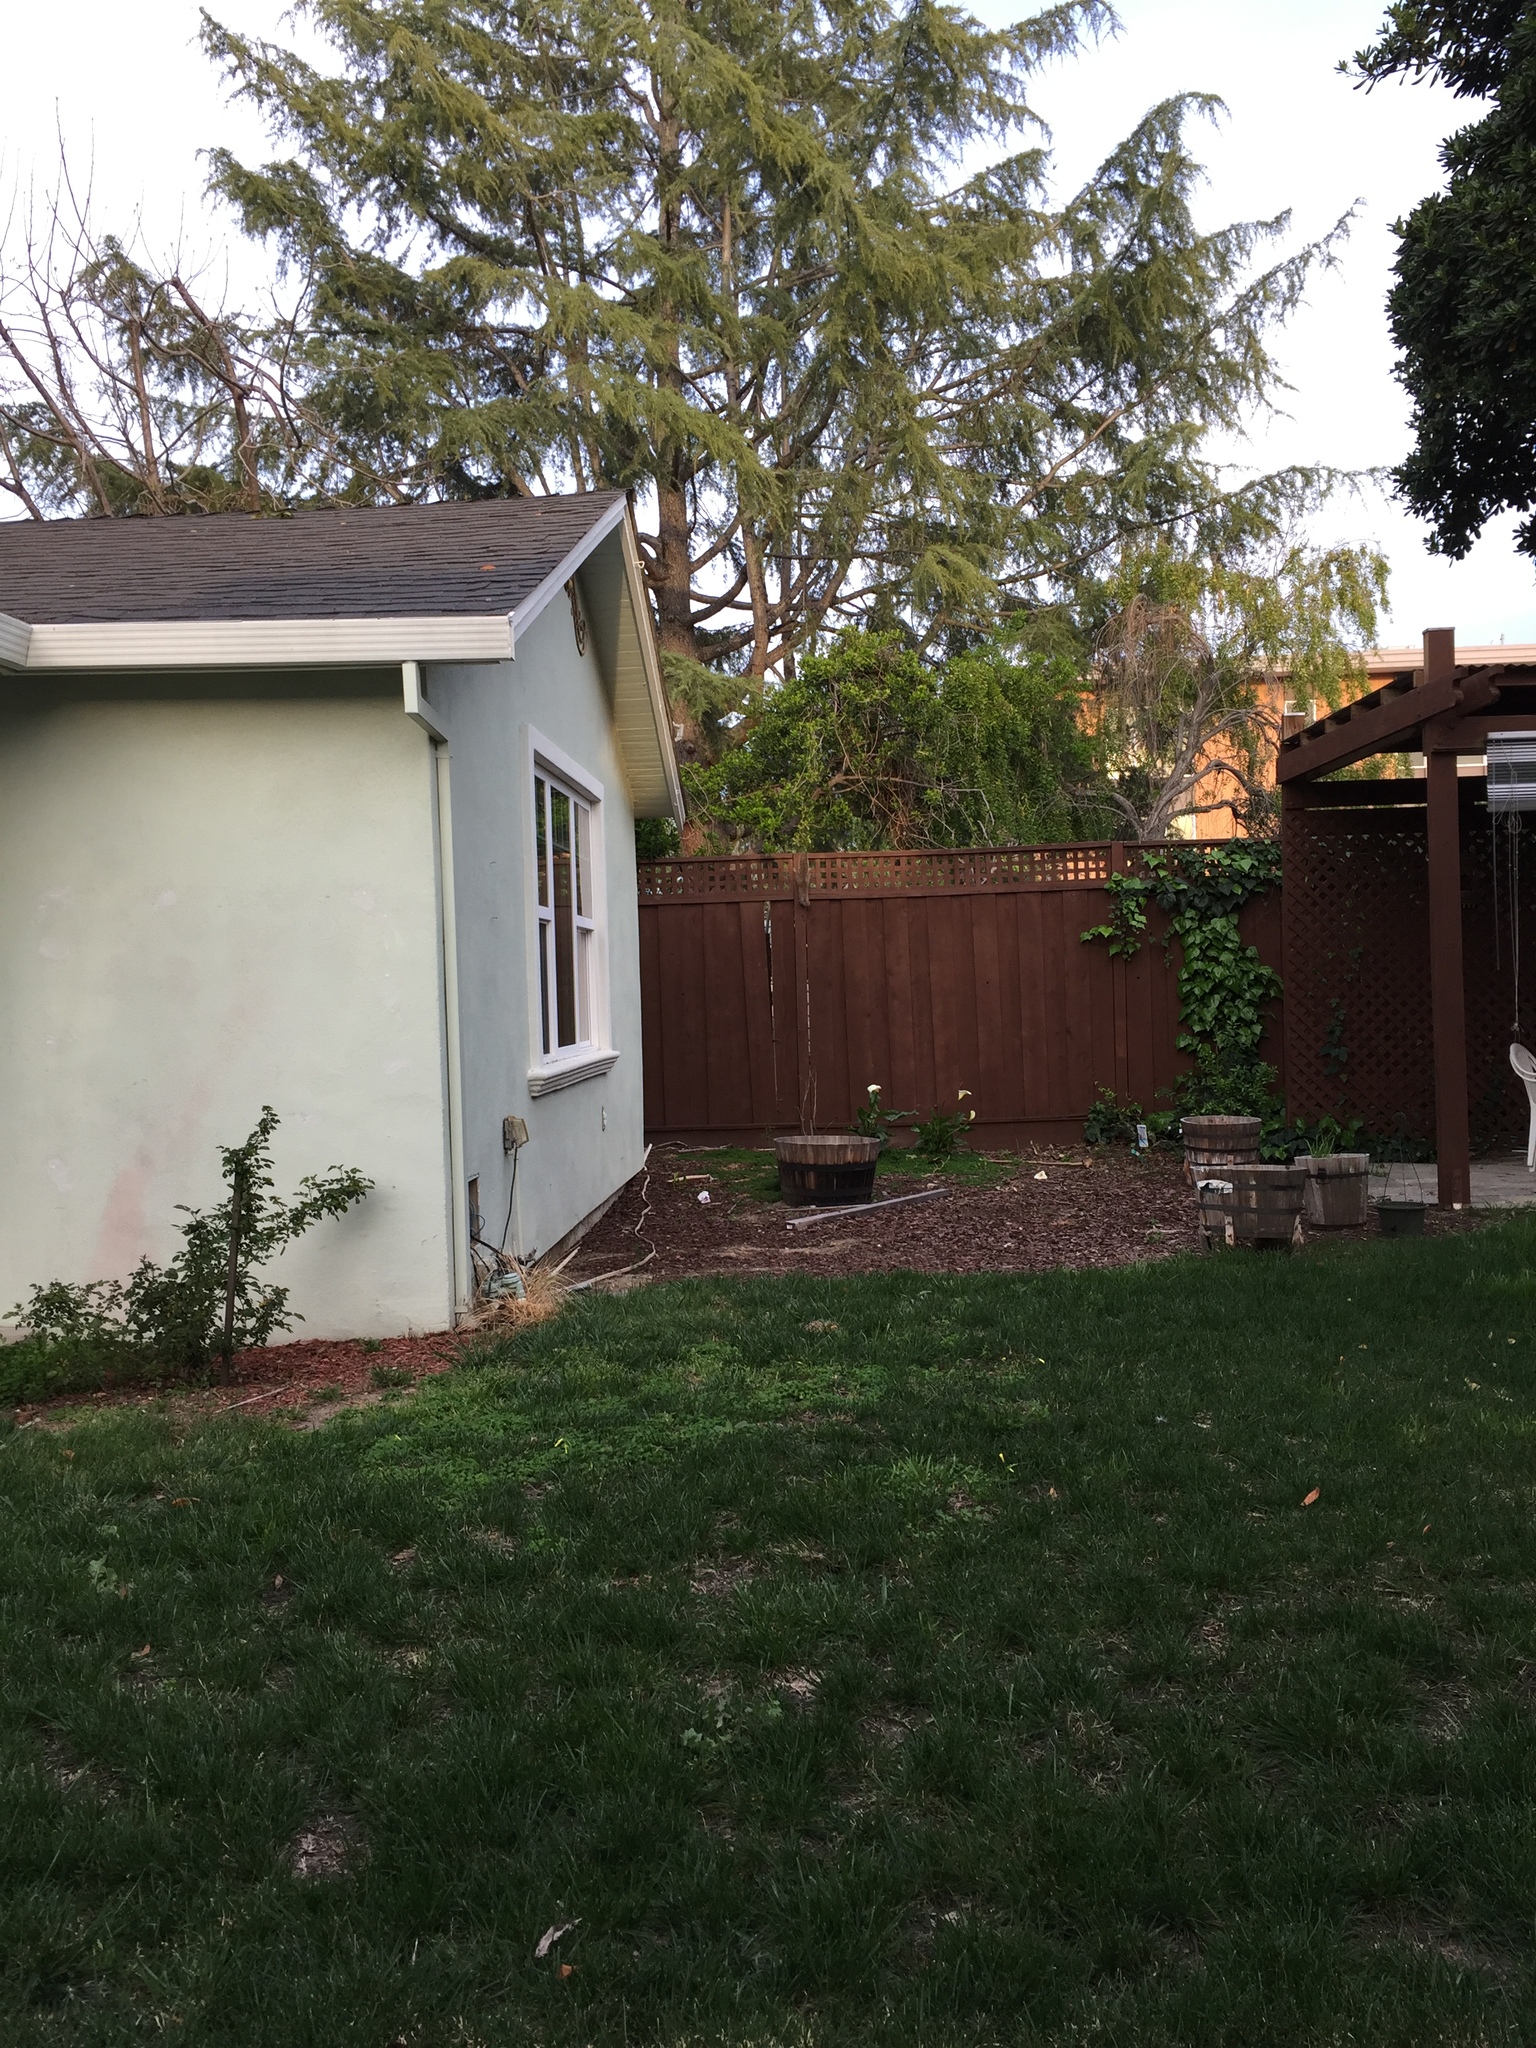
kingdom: Animalia
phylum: Chordata
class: Mammalia
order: Rodentia
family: Sciuridae
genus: Sciurus
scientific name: Sciurus carolinensis
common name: Eastern gray squirrel
